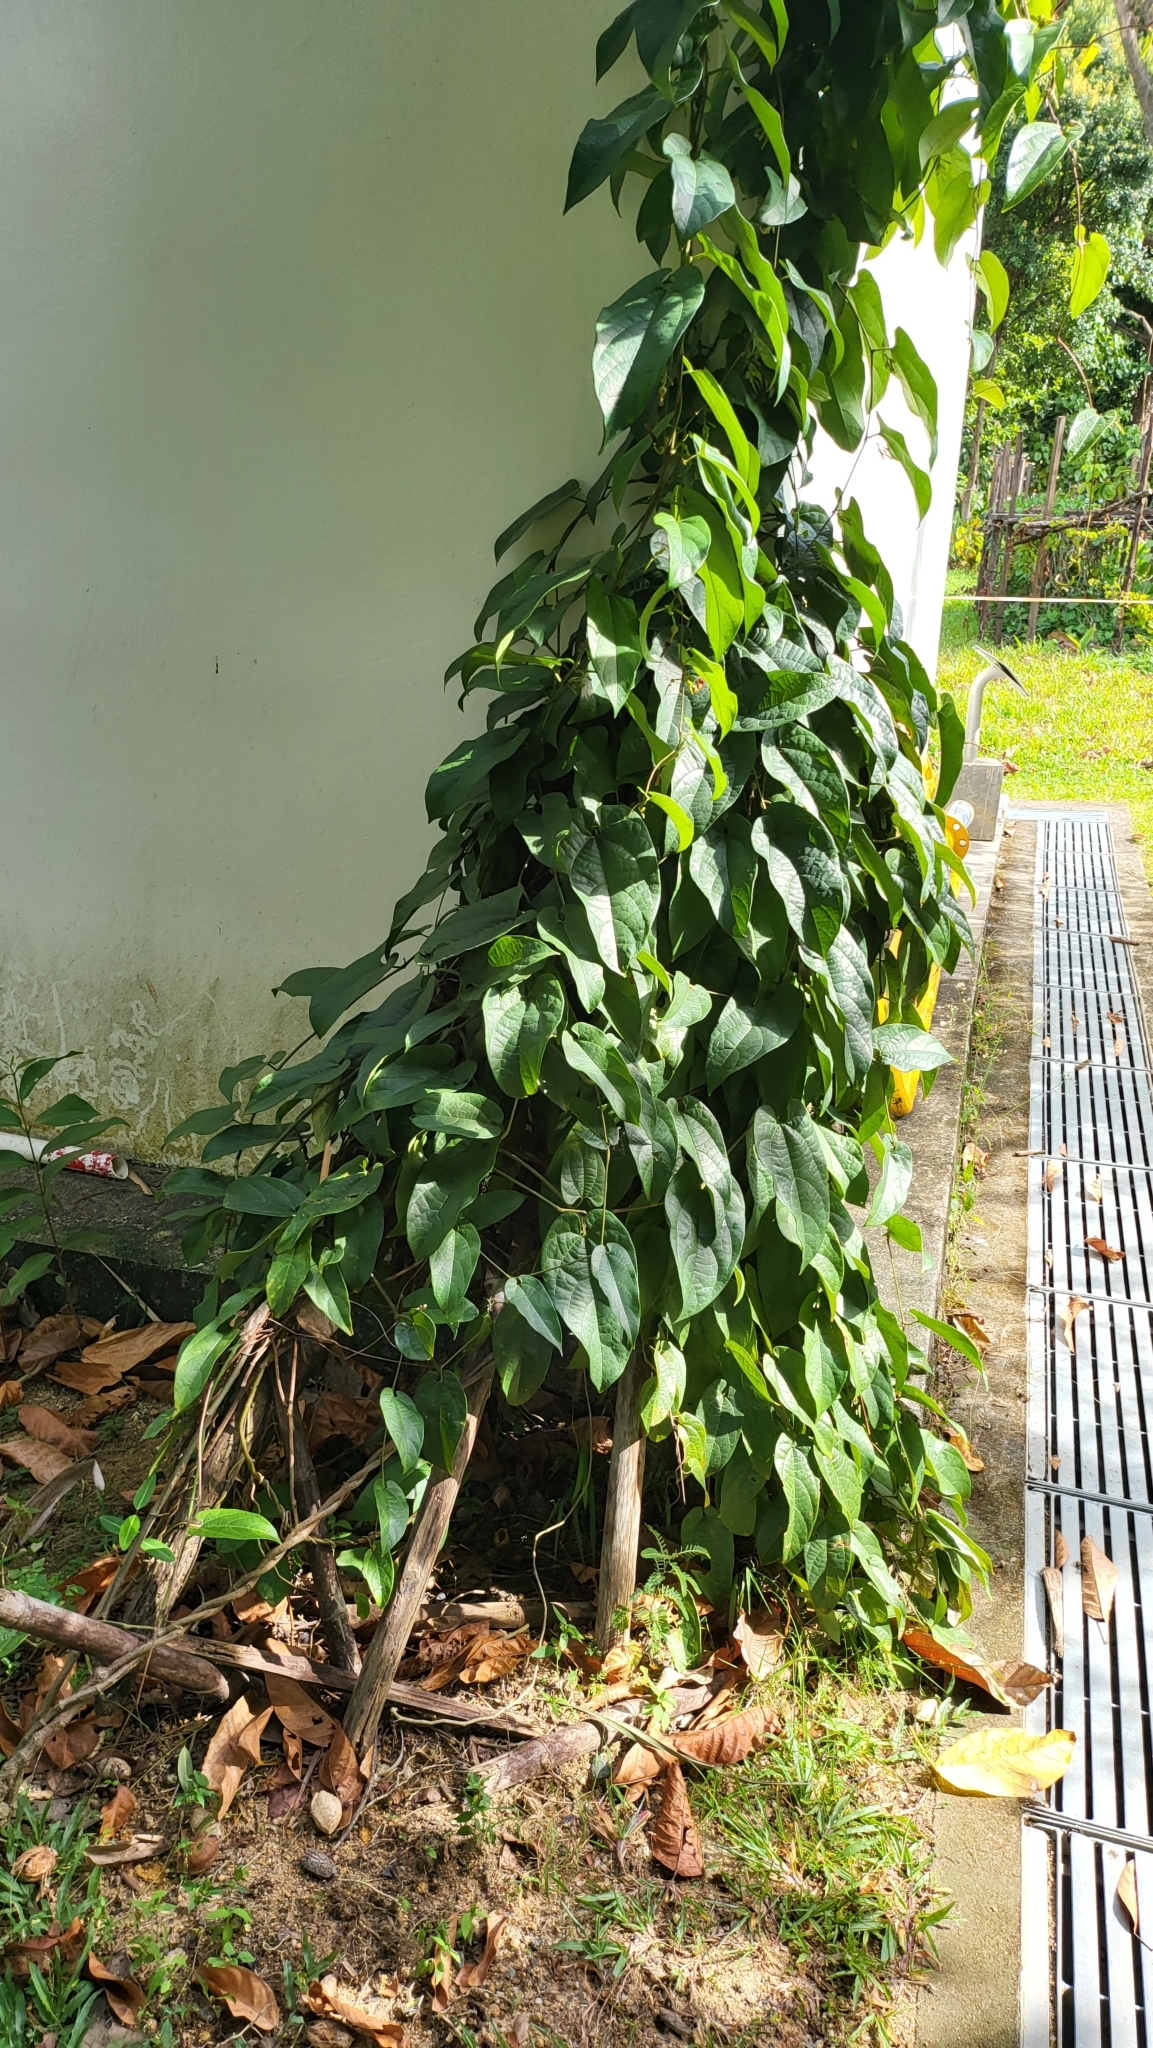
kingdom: Plantae
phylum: Tracheophyta
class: Magnoliopsida
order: Piperales
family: Aristolochiaceae
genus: Aristolochia
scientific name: Aristolochia acuminata
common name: Indian birthwort
